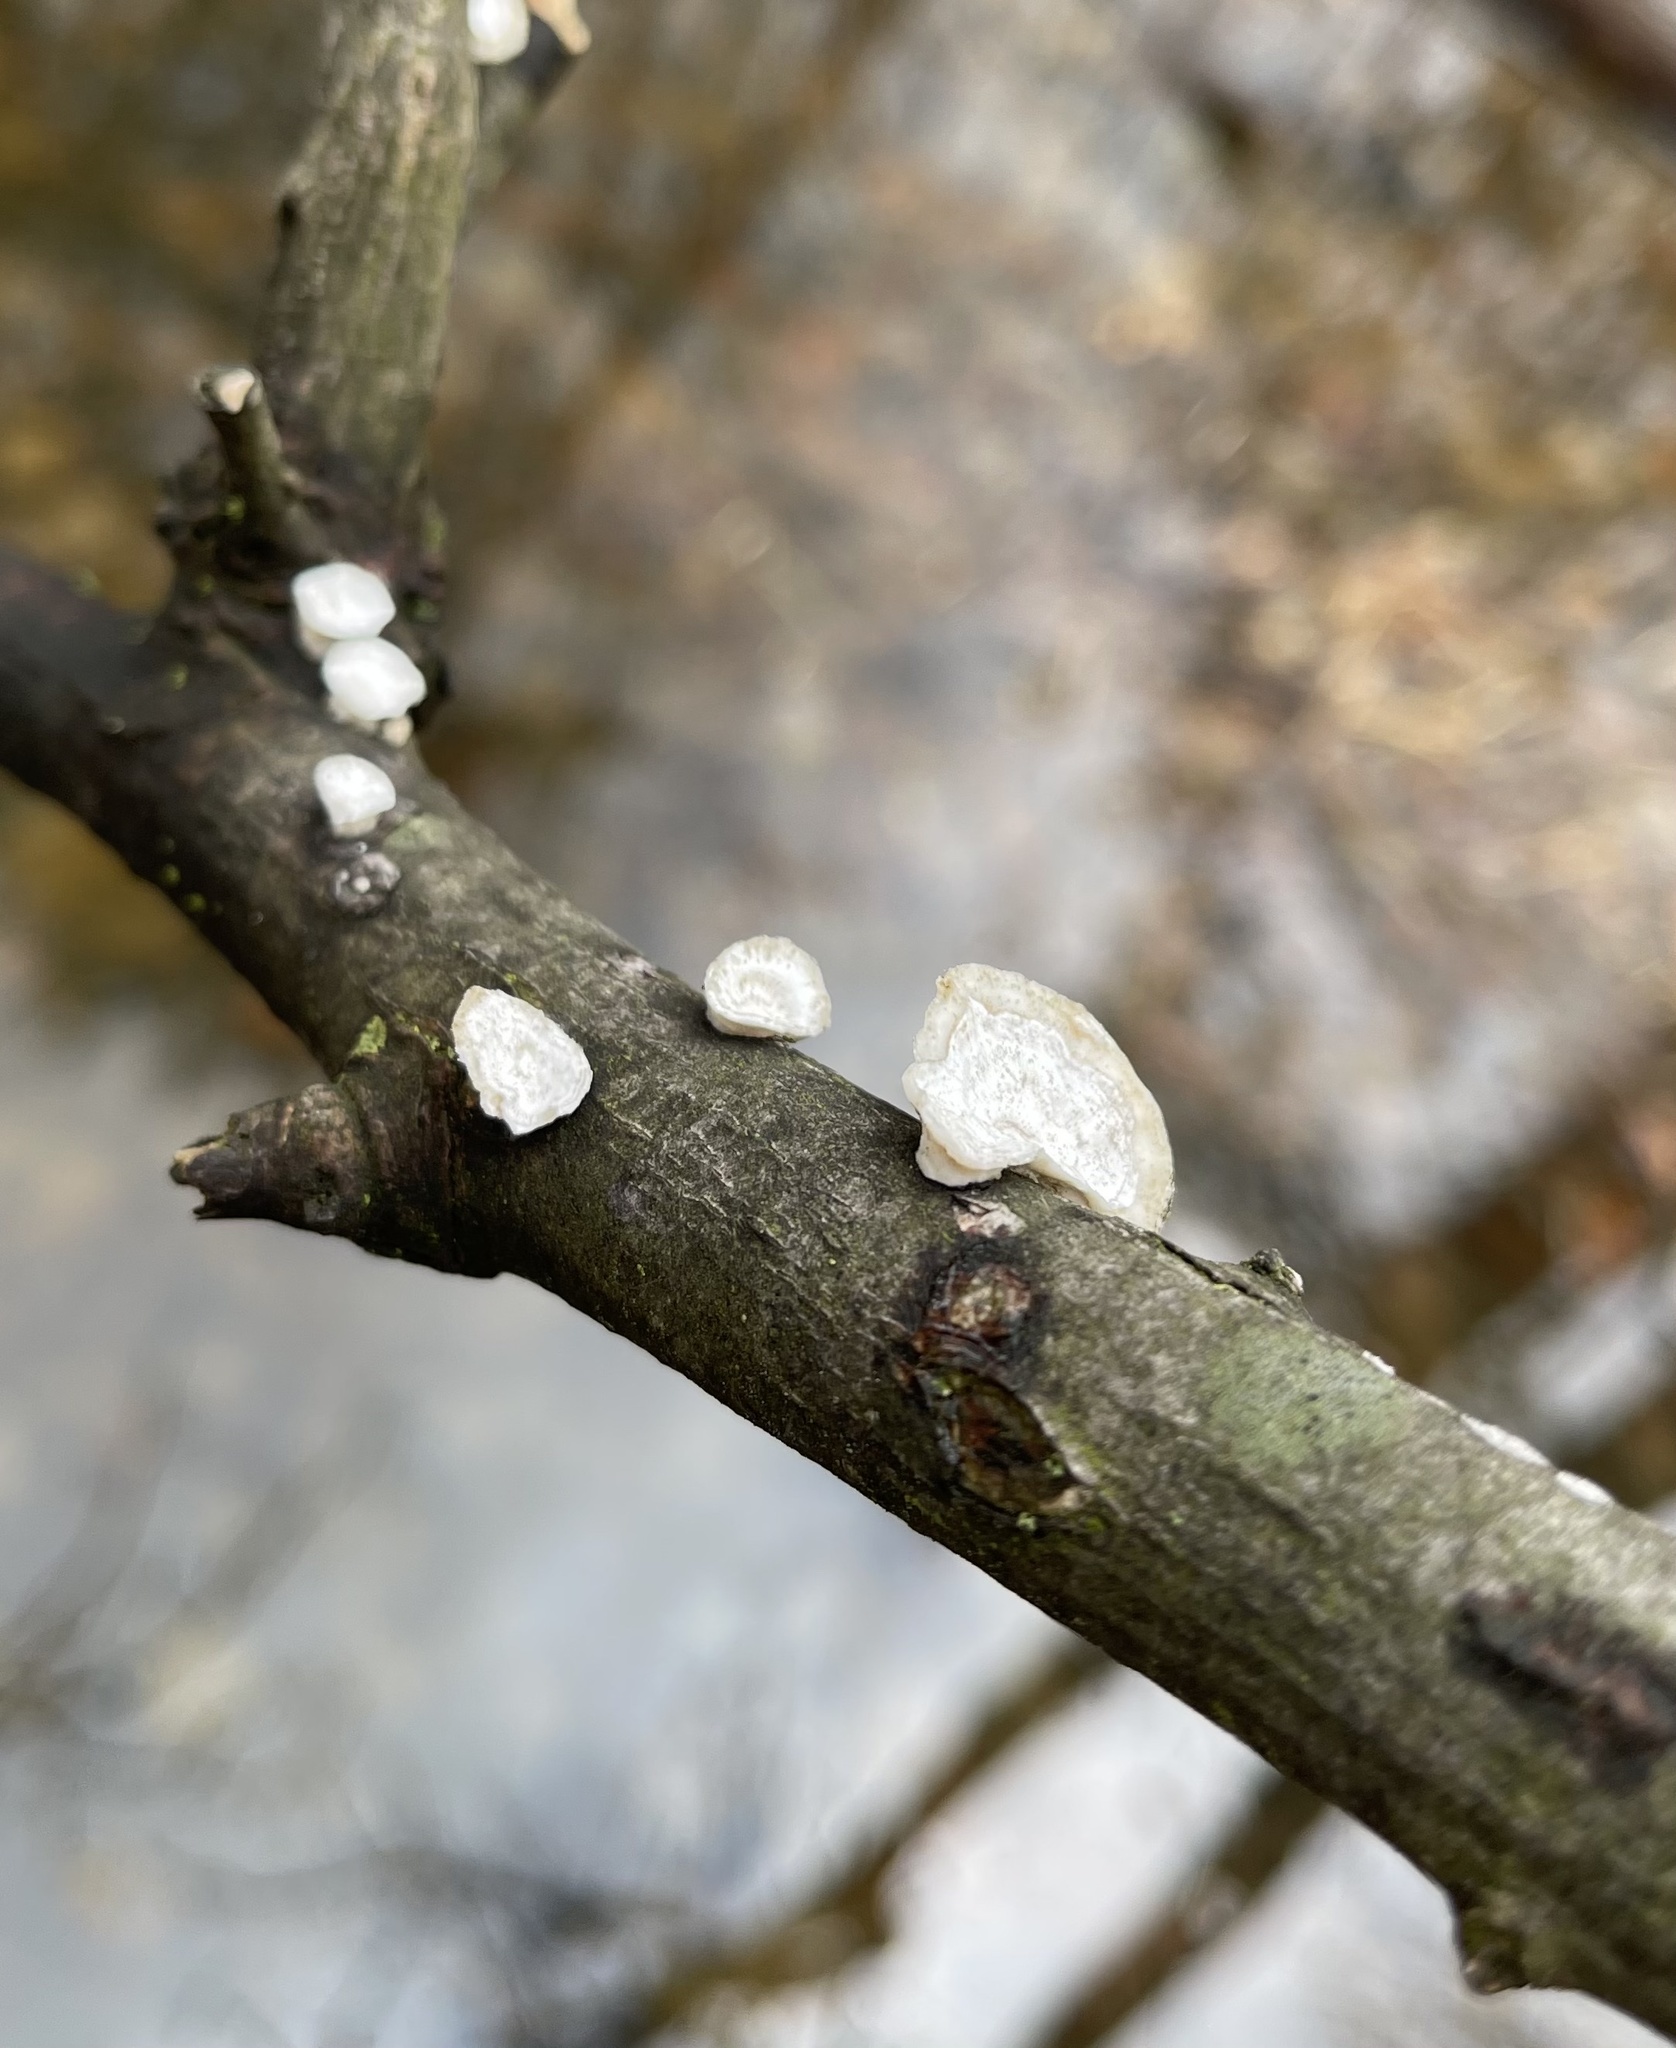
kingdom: Fungi
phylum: Basidiomycota
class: Agaricomycetes
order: Polyporales
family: Polyporaceae
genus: Poronidulus
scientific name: Poronidulus conchifer
